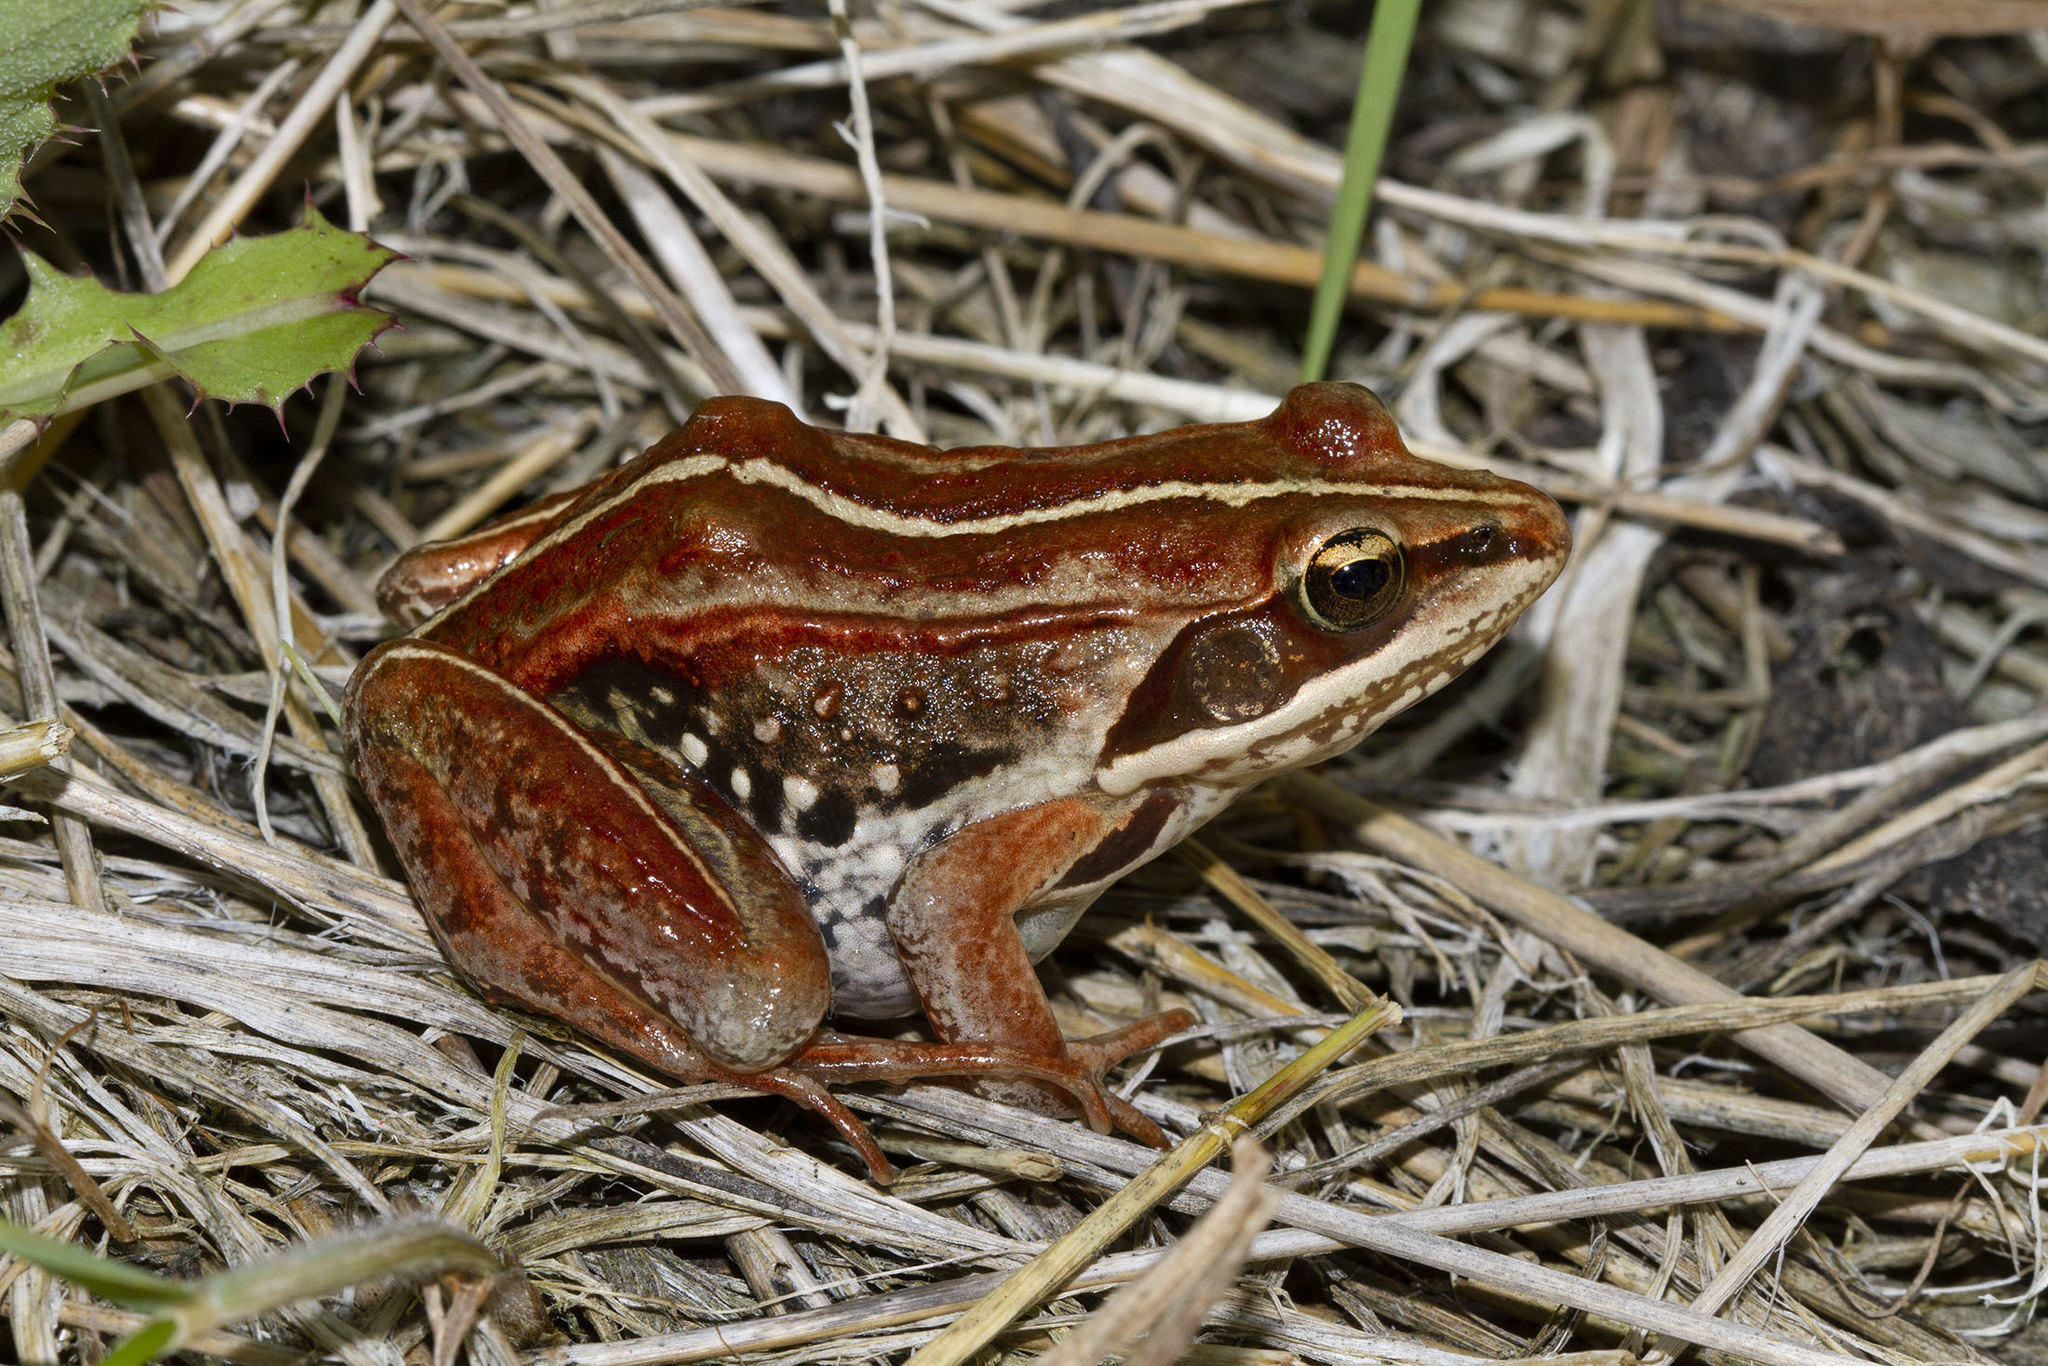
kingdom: Animalia
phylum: Chordata
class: Amphibia
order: Anura
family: Ranidae
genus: Lithobates
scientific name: Lithobates sylvaticus
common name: Wood frog
